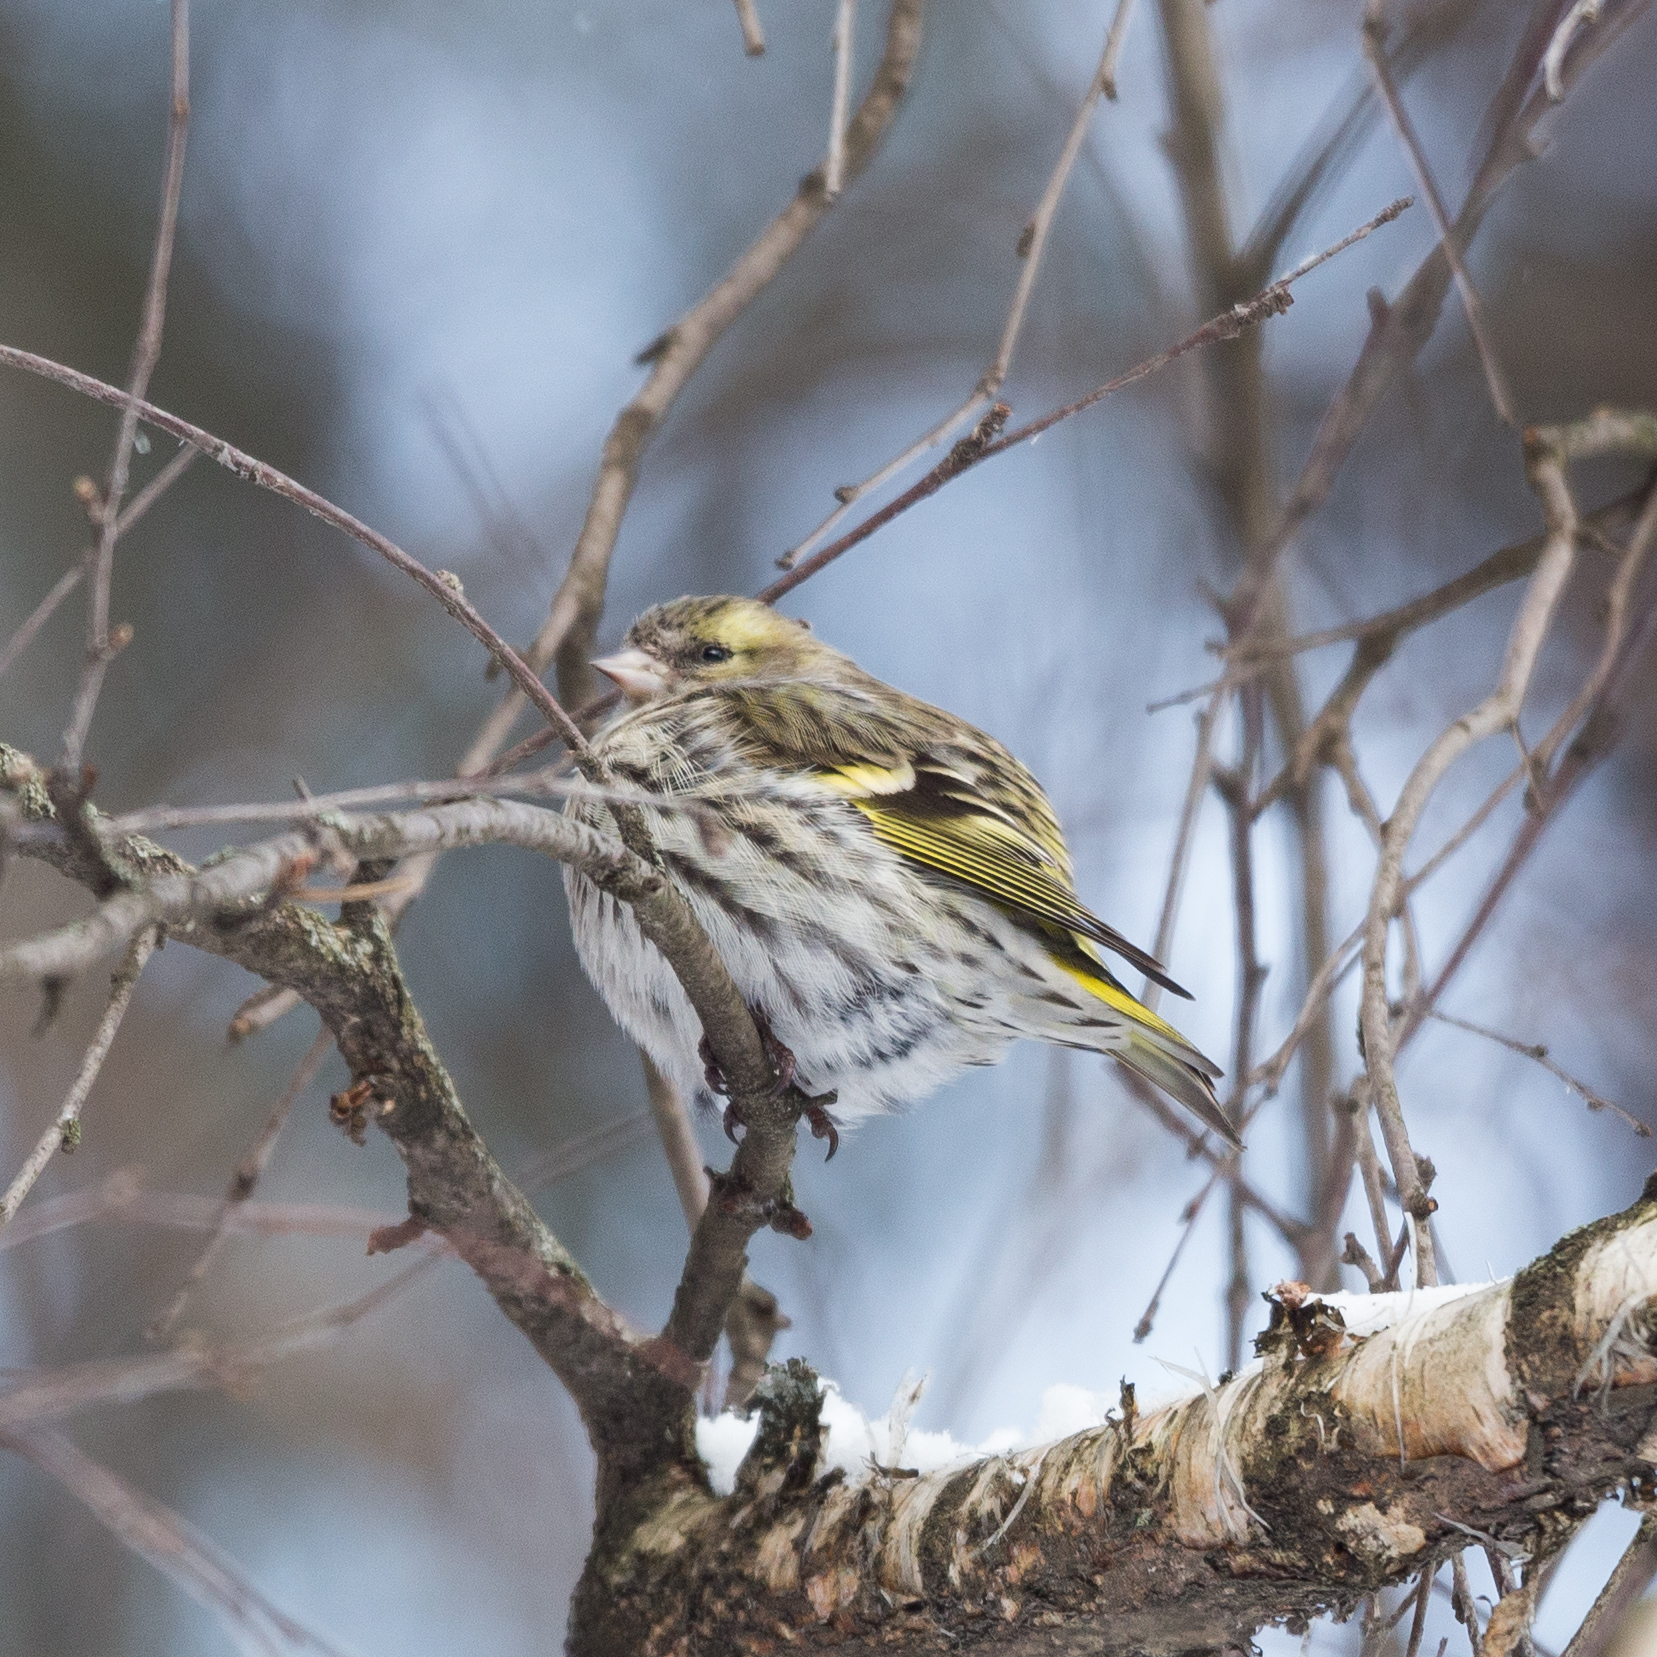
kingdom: Animalia
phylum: Chordata
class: Aves
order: Passeriformes
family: Fringillidae
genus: Spinus
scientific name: Spinus spinus
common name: Eurasian siskin
